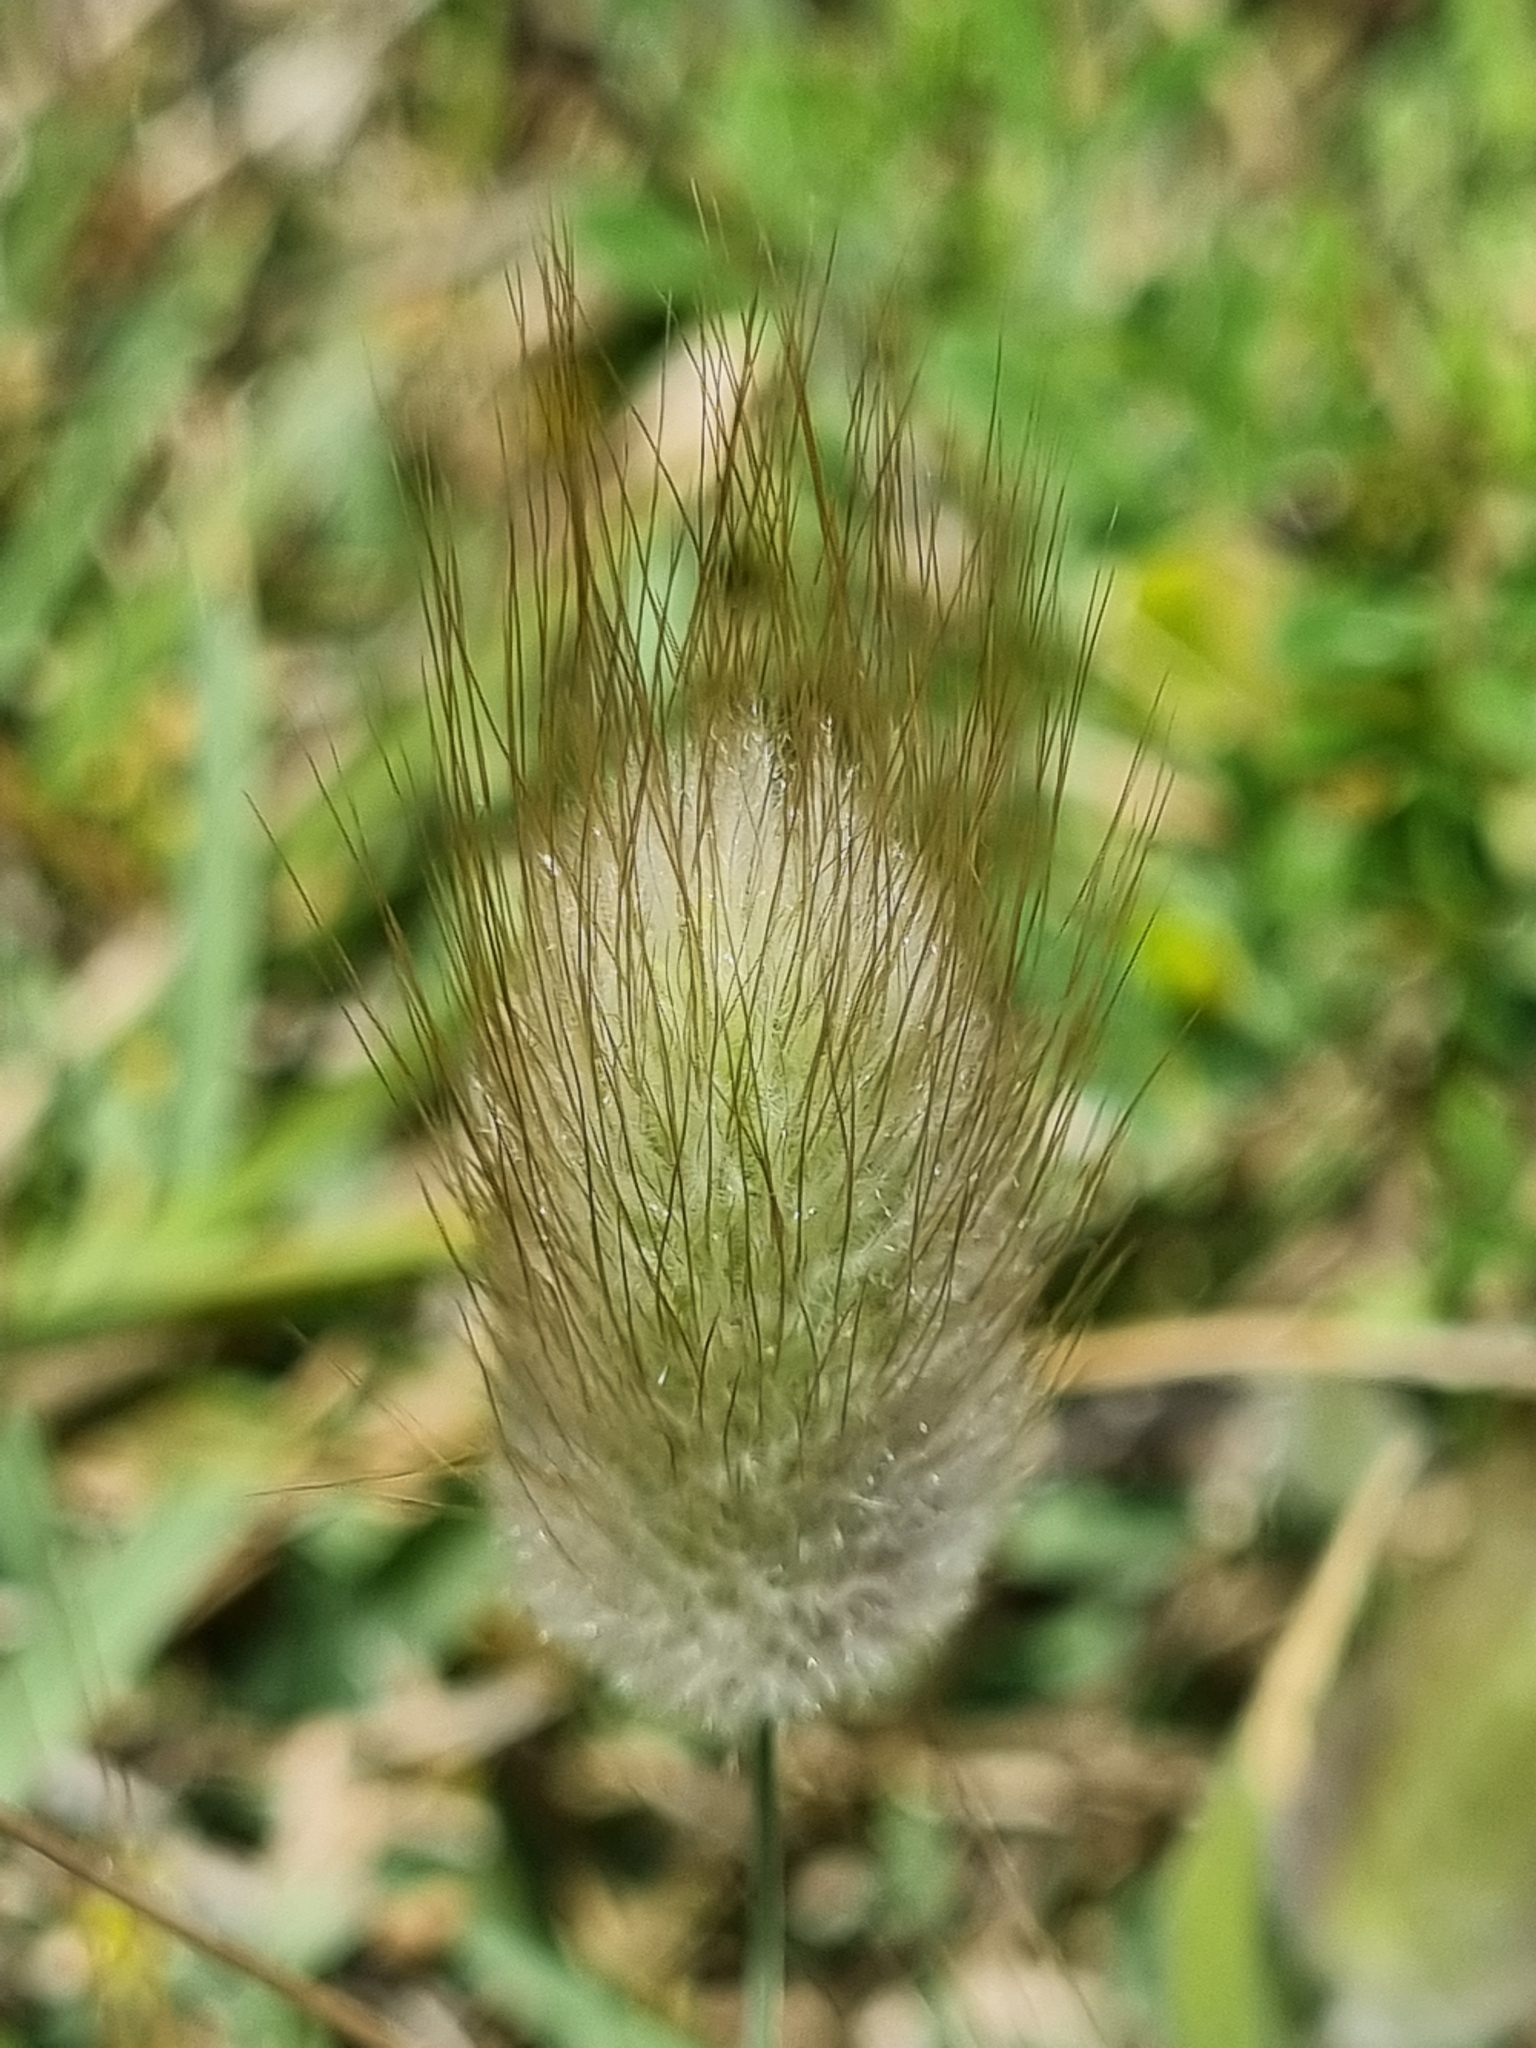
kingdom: Plantae
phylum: Tracheophyta
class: Liliopsida
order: Poales
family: Poaceae
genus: Lagurus
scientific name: Lagurus ovatus
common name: Hare's-tail
